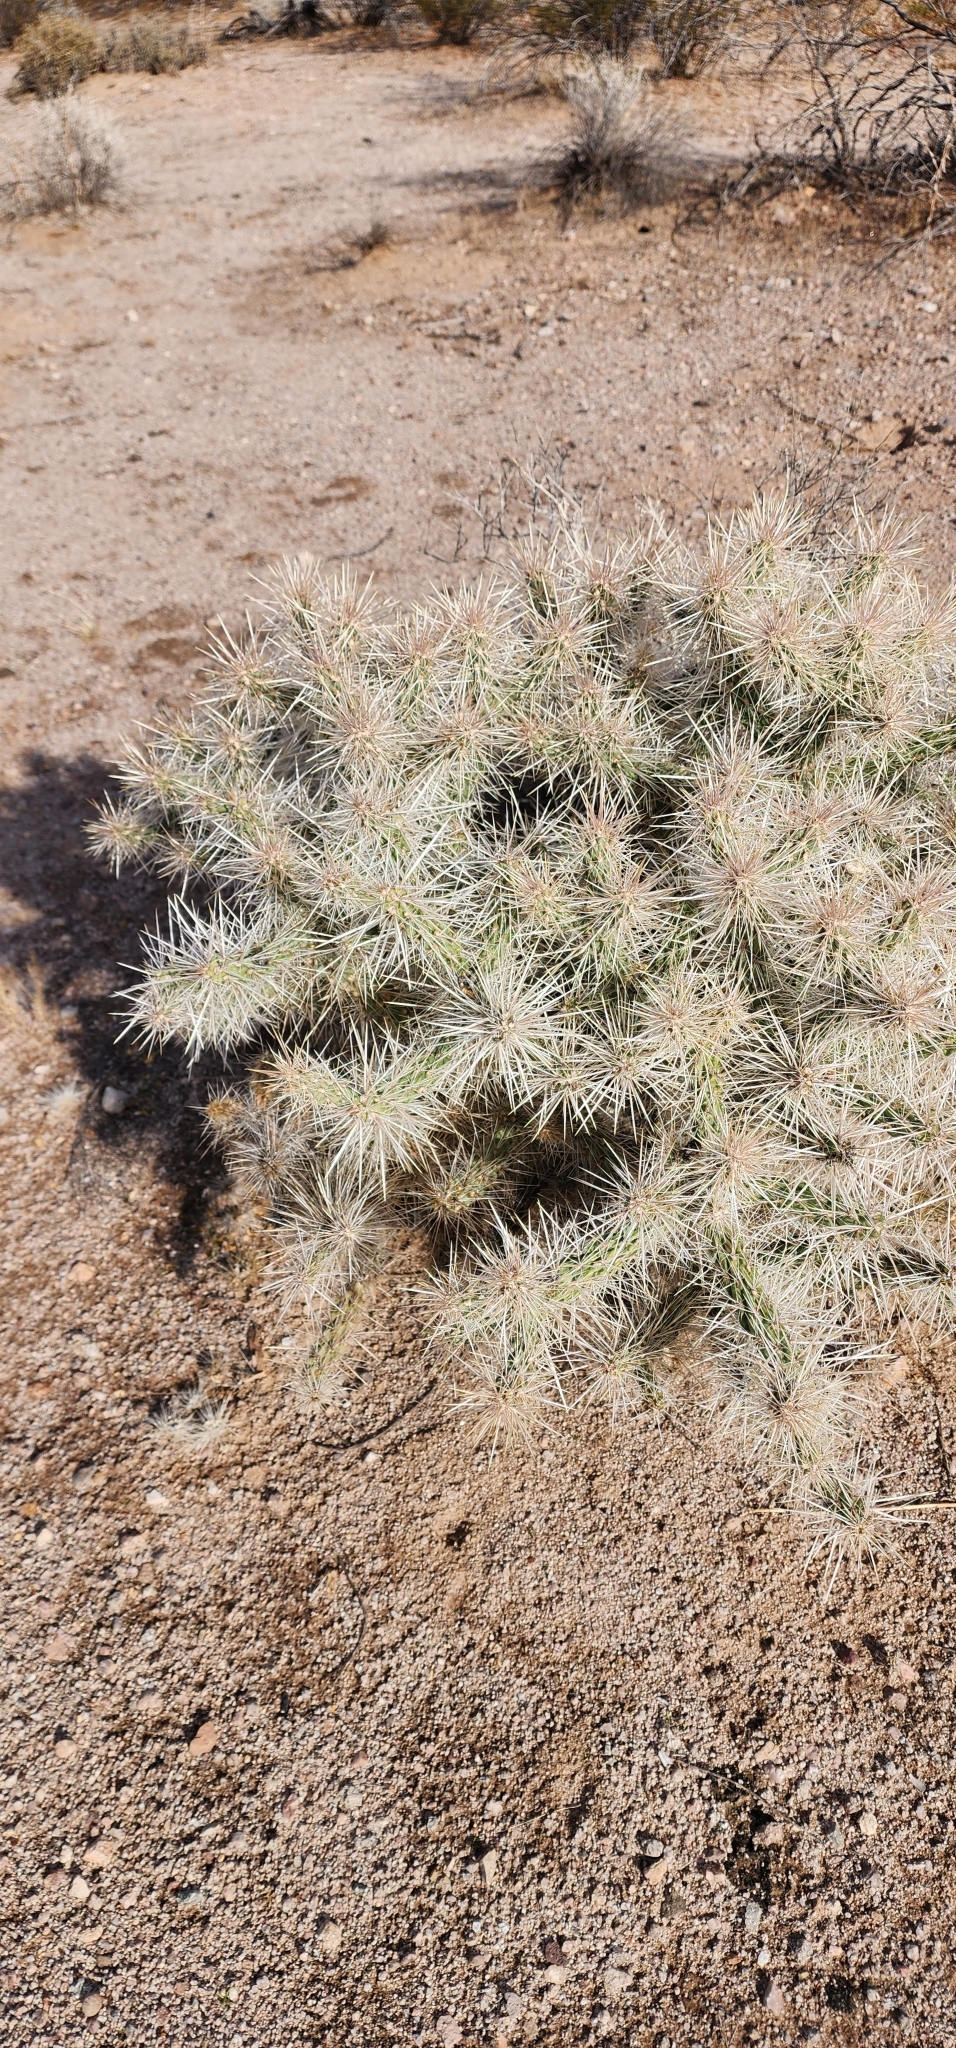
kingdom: Plantae
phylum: Tracheophyta
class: Magnoliopsida
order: Caryophyllales
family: Cactaceae
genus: Cylindropuntia
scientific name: Cylindropuntia echinocarpa
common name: Ground cholla
